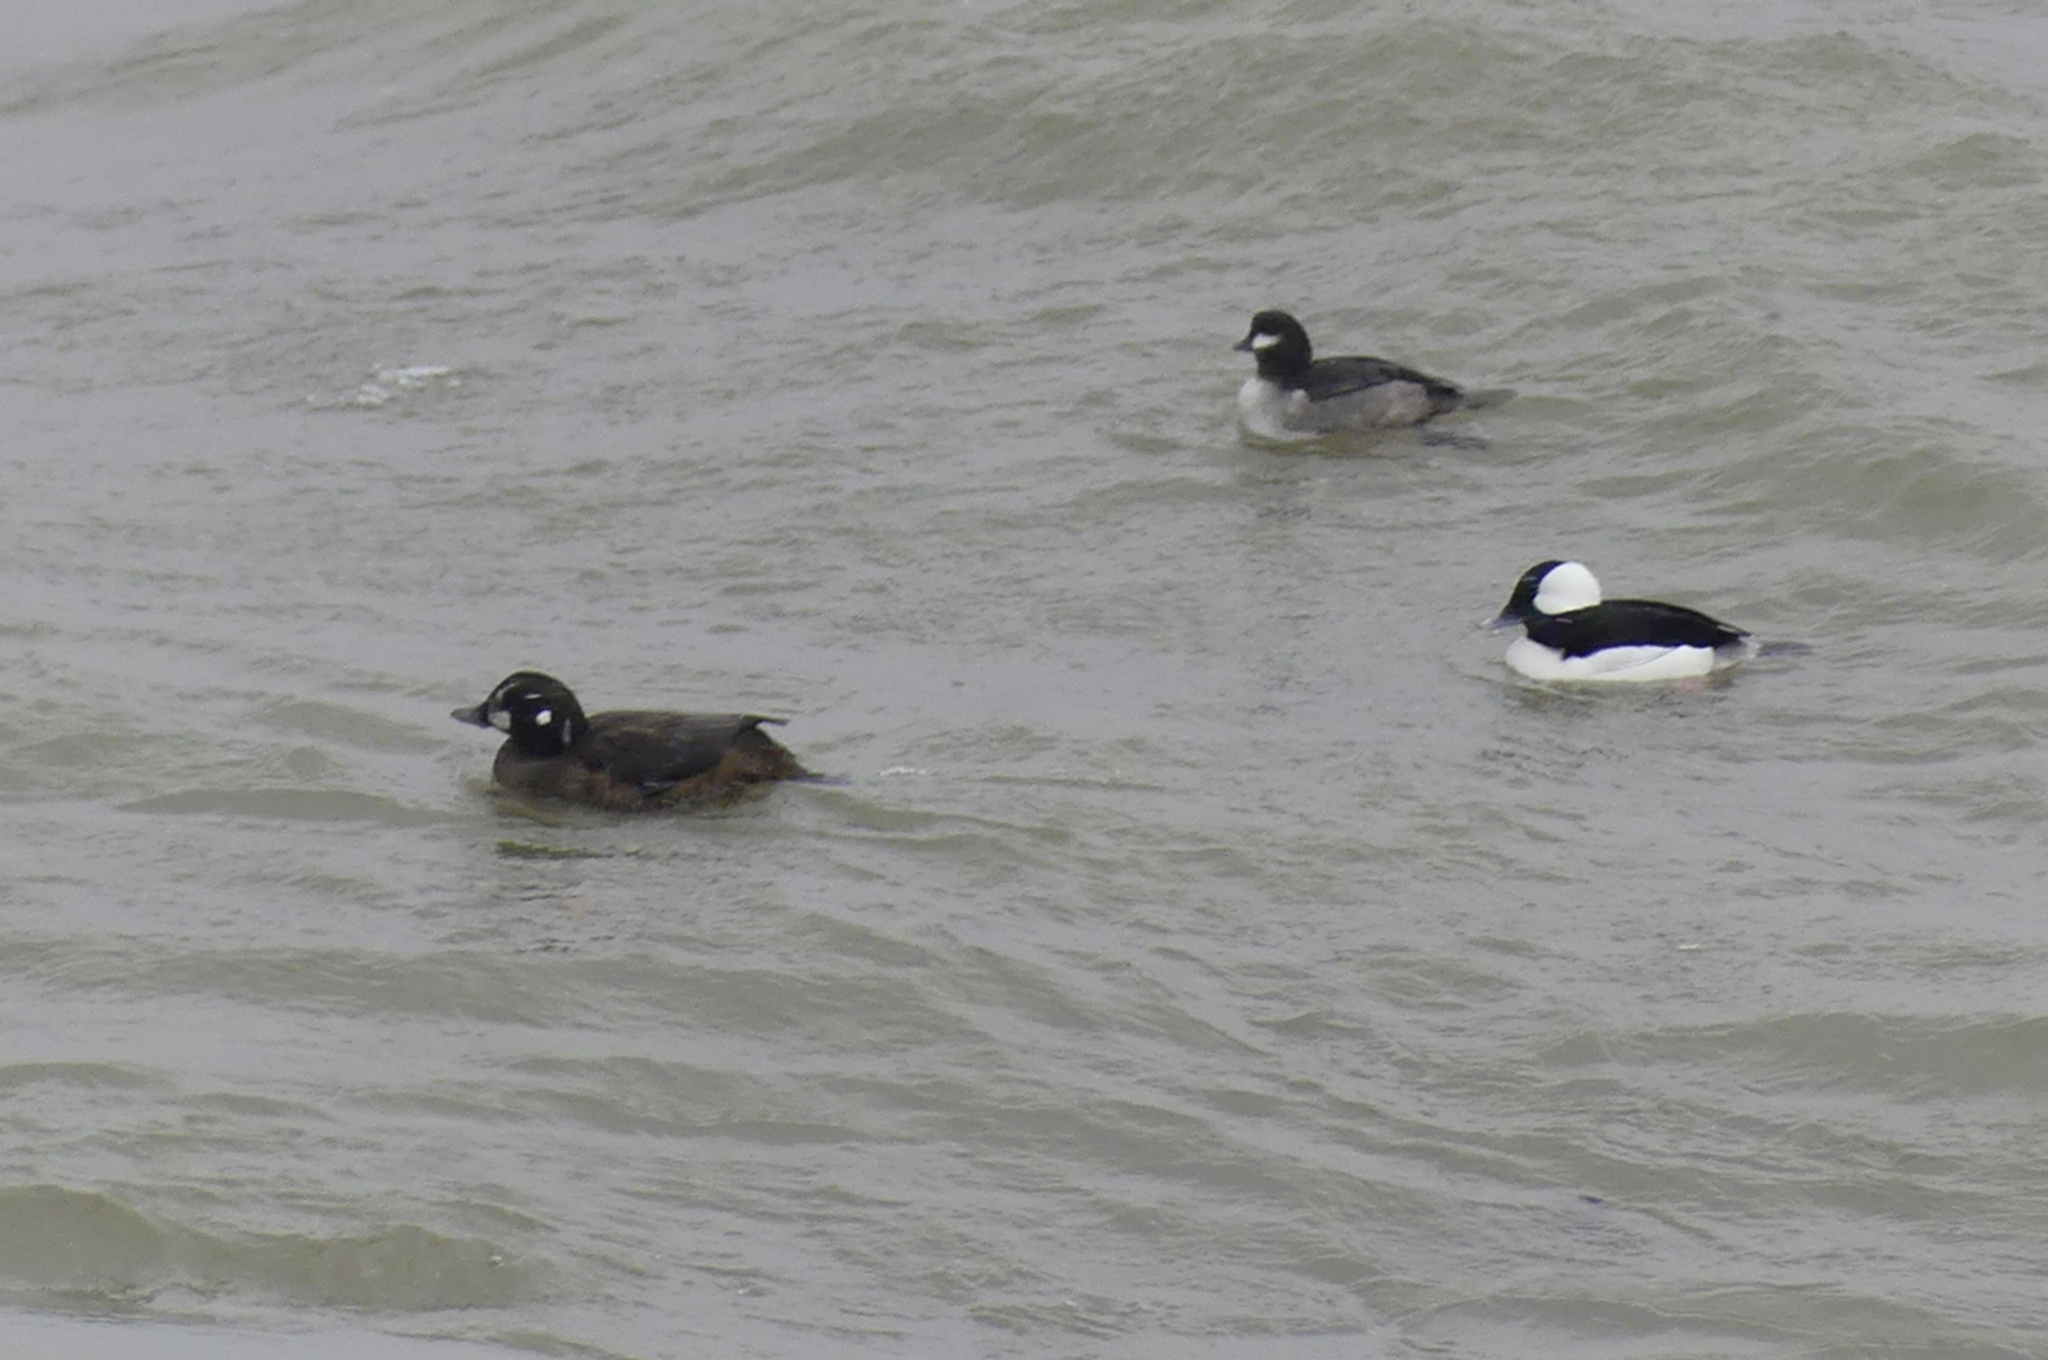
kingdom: Animalia
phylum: Chordata
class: Aves
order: Anseriformes
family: Anatidae
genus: Histrionicus
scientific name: Histrionicus histrionicus
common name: Harlequin duck
